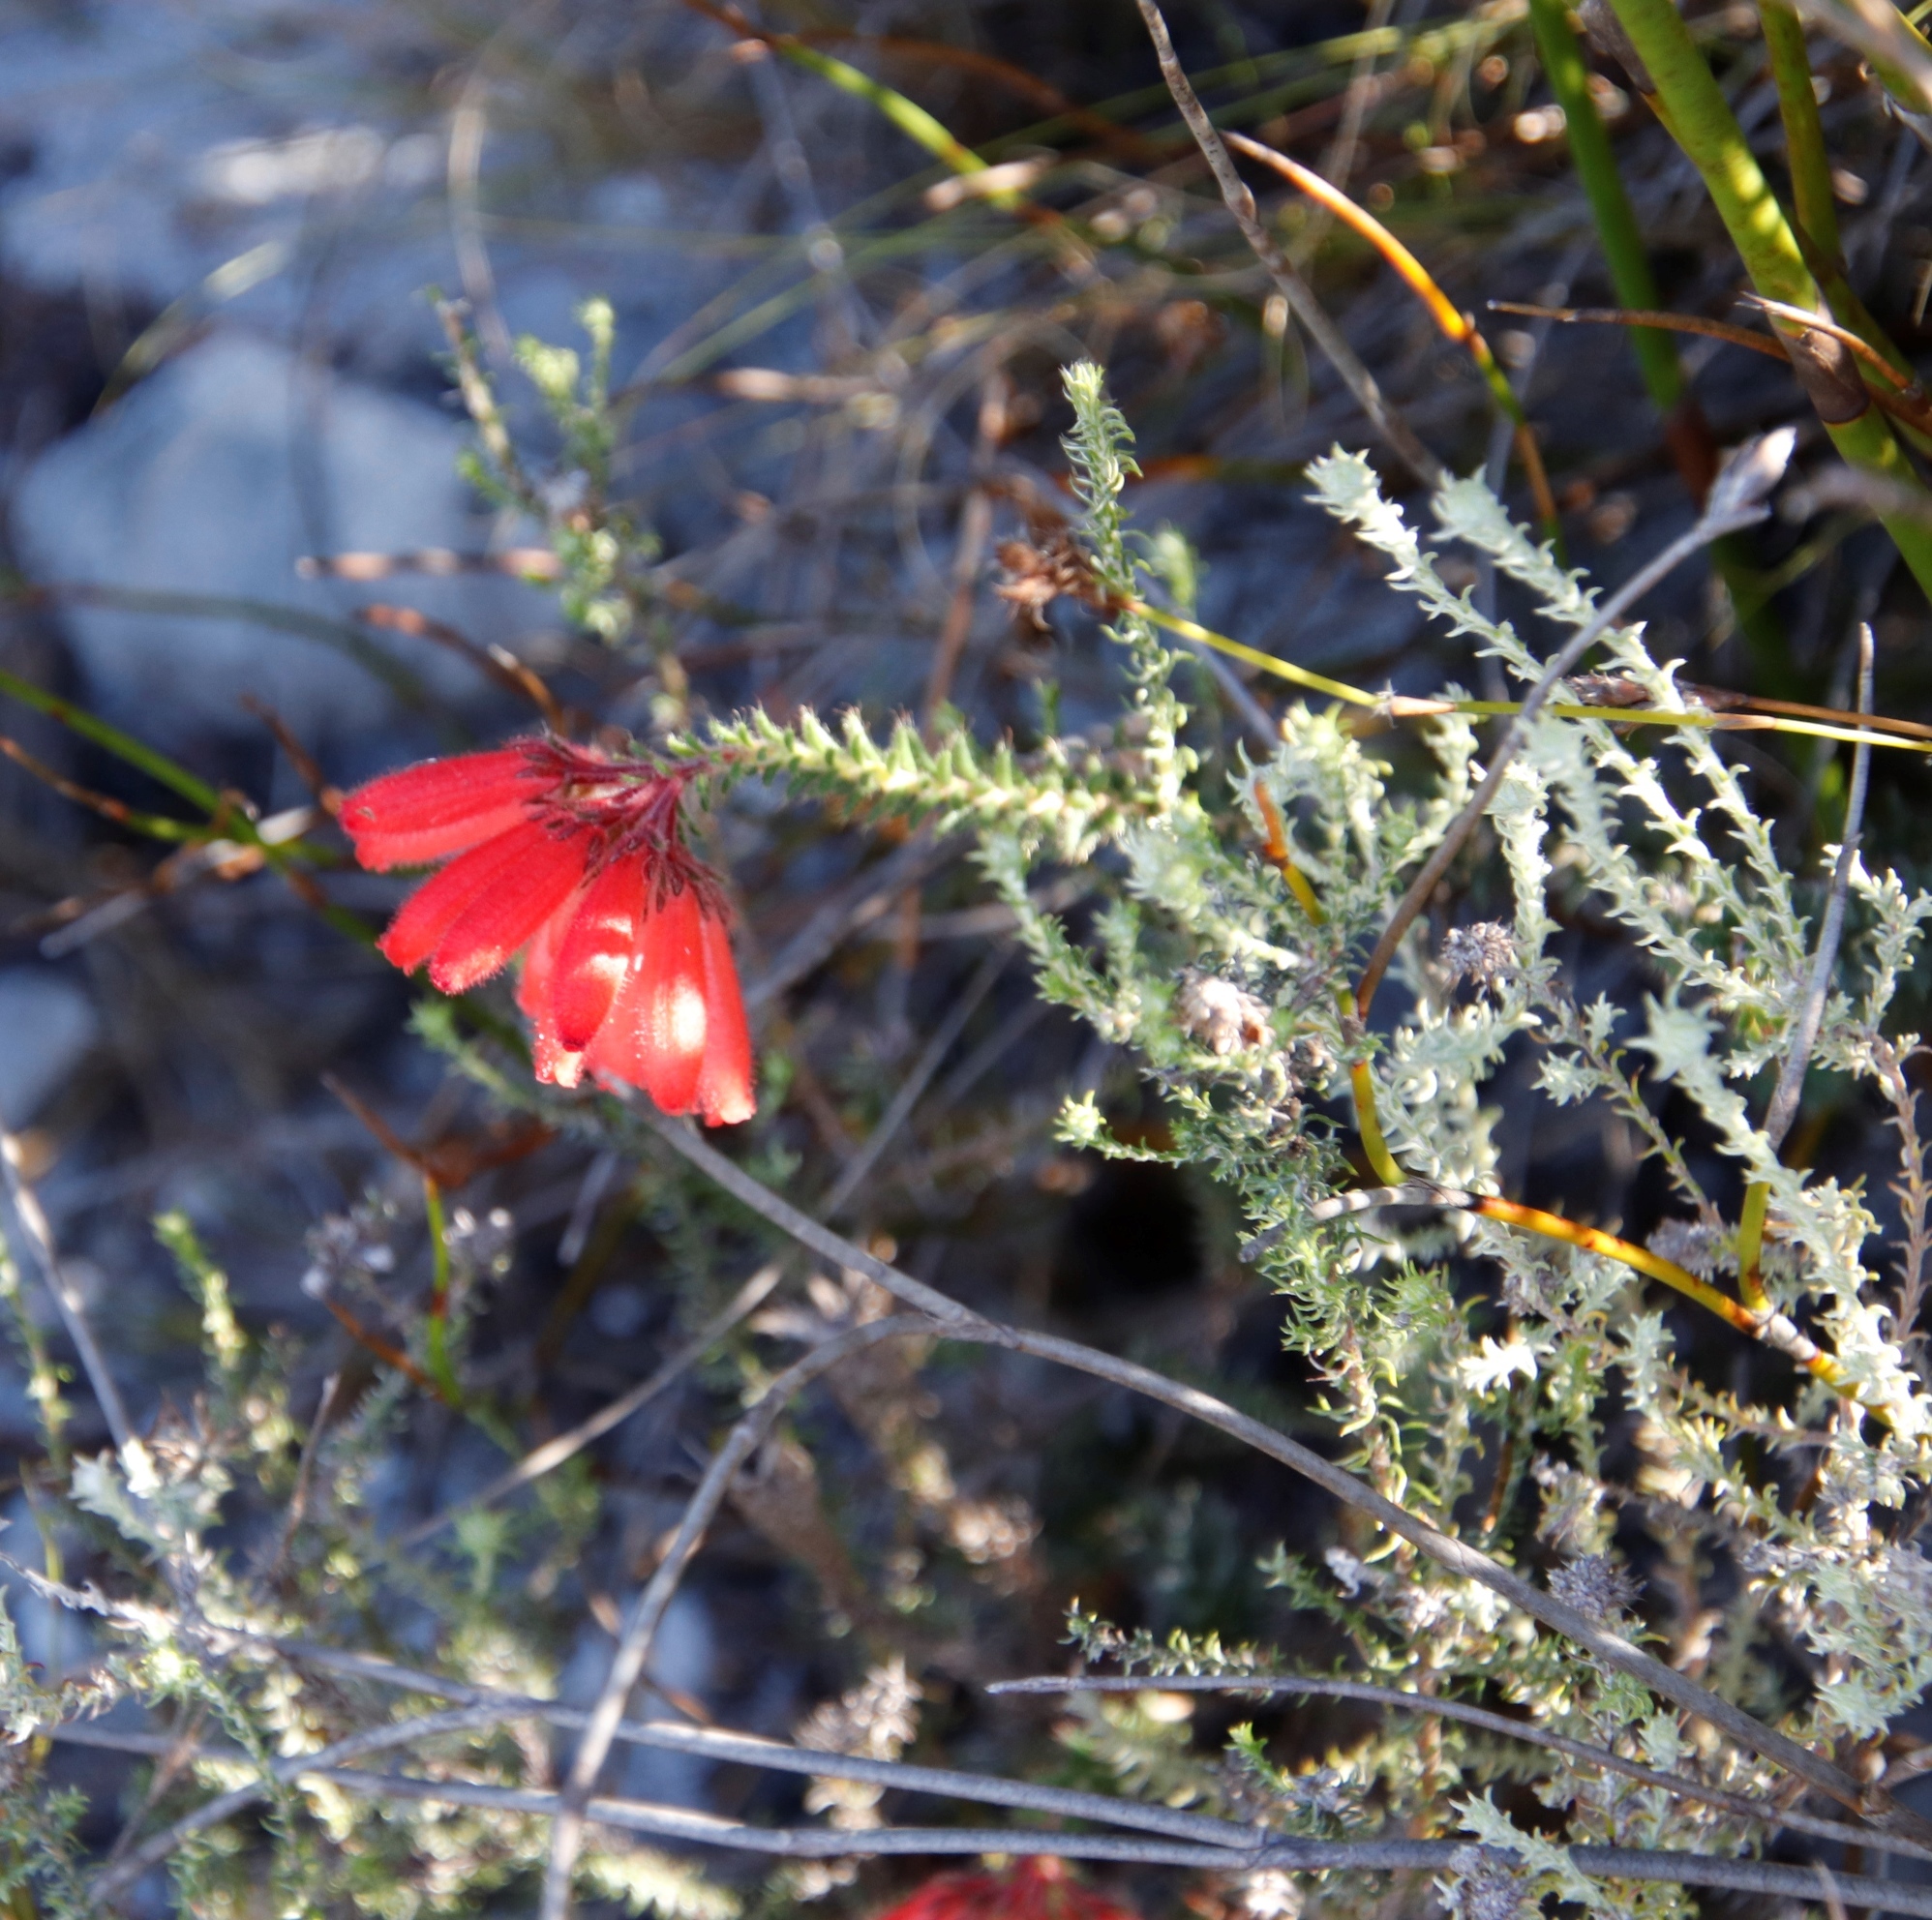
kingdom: Plantae
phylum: Tracheophyta
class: Magnoliopsida
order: Ericales
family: Ericaceae
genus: Erica
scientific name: Erica cerinthoides
